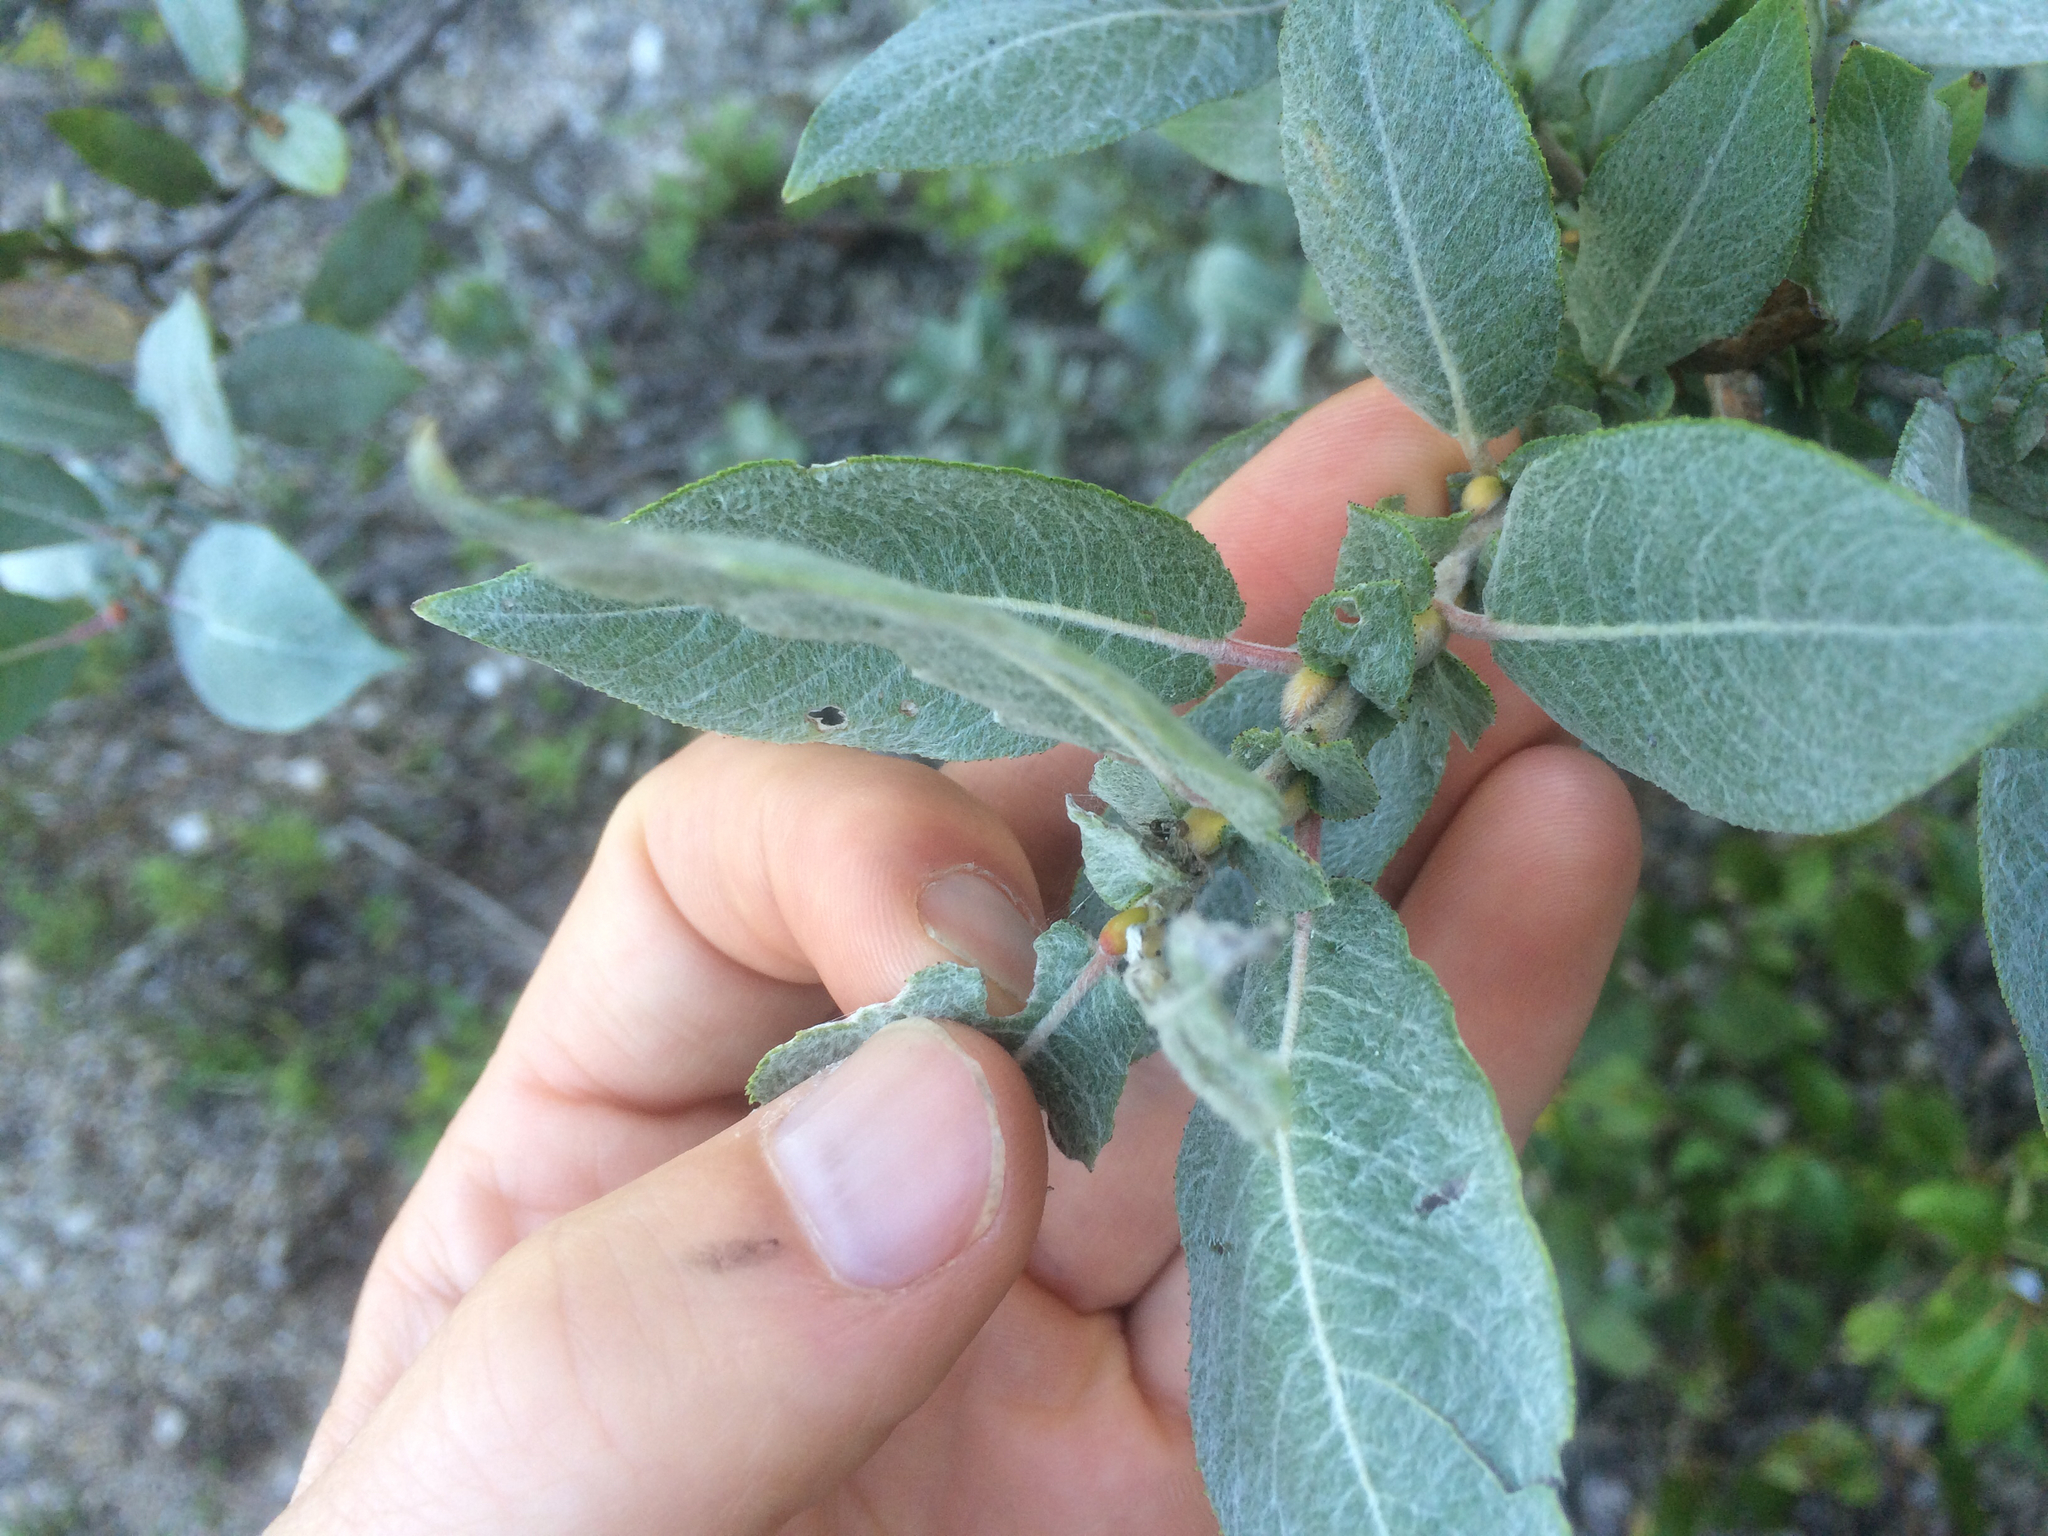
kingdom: Plantae
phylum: Tracheophyta
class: Magnoliopsida
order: Malpighiales
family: Salicaceae
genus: Salix
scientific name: Salix cordata
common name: Heart-leaf willow
